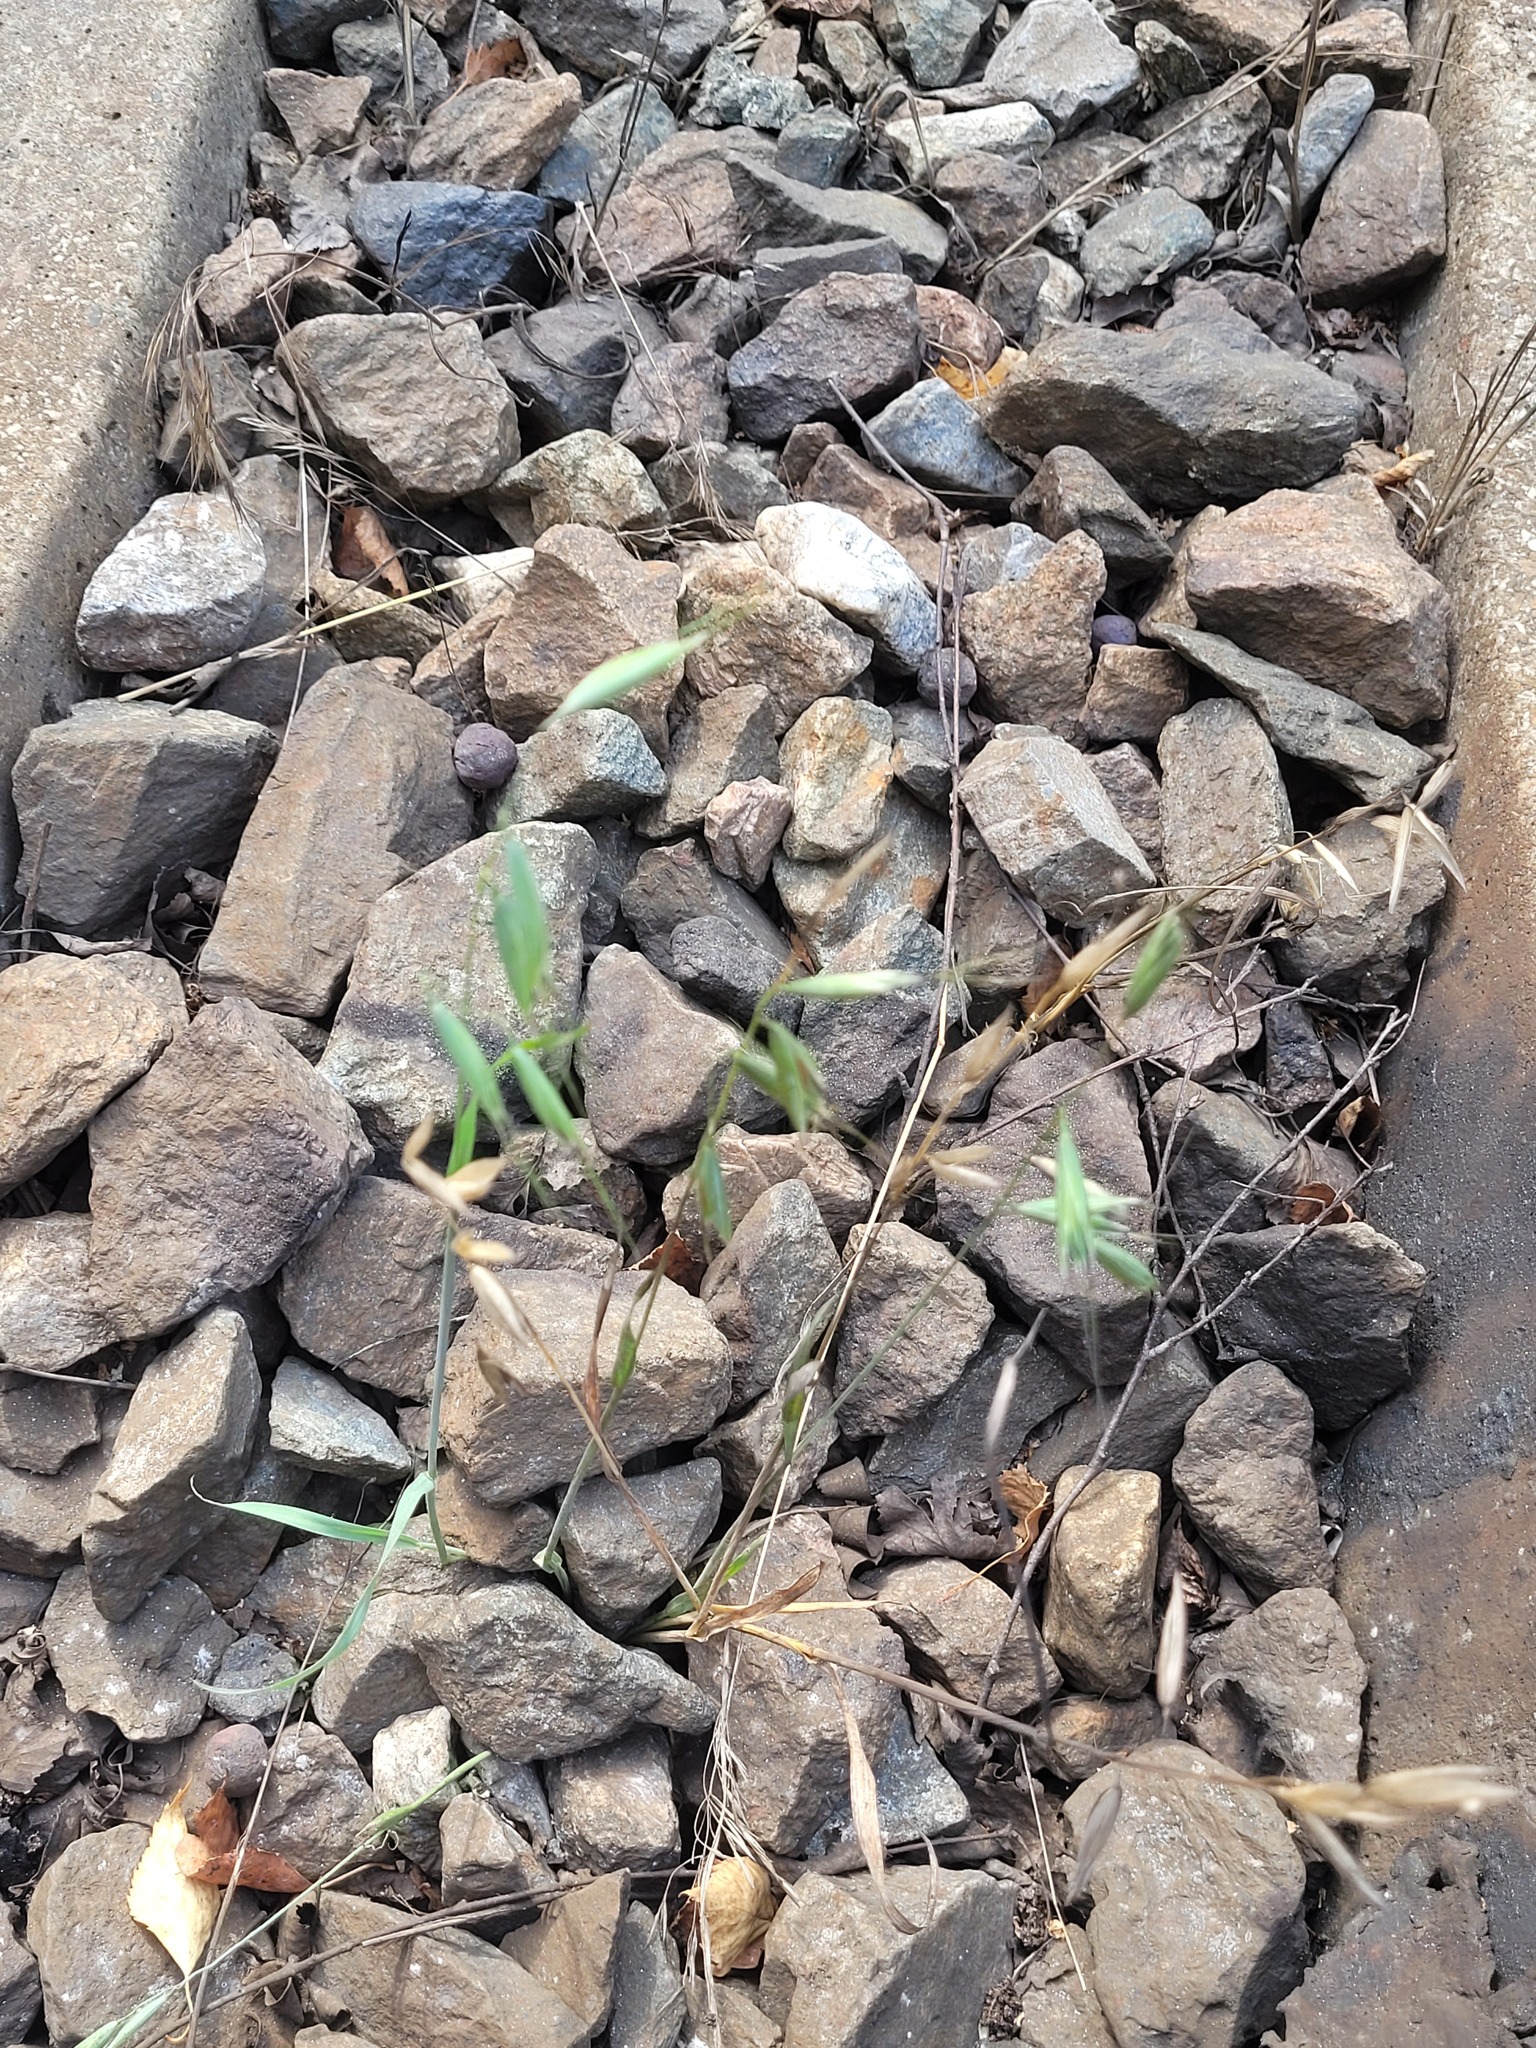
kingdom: Plantae
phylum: Tracheophyta
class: Liliopsida
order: Poales
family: Poaceae
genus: Avena
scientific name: Avena fatua
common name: Wild oat
